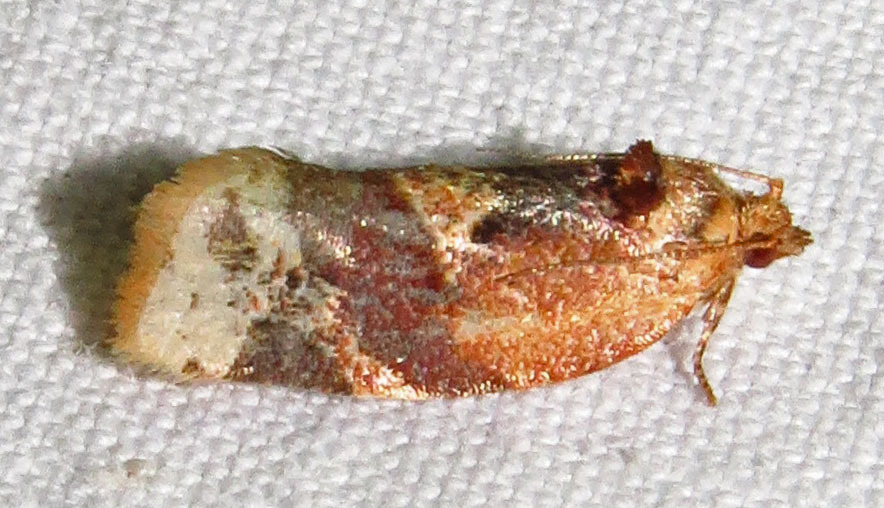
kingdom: Animalia
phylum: Arthropoda
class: Insecta
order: Lepidoptera
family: Tortricidae
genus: Argyrotaenia
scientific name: Argyrotaenia velutinana
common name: Red-banded leafroller moth
